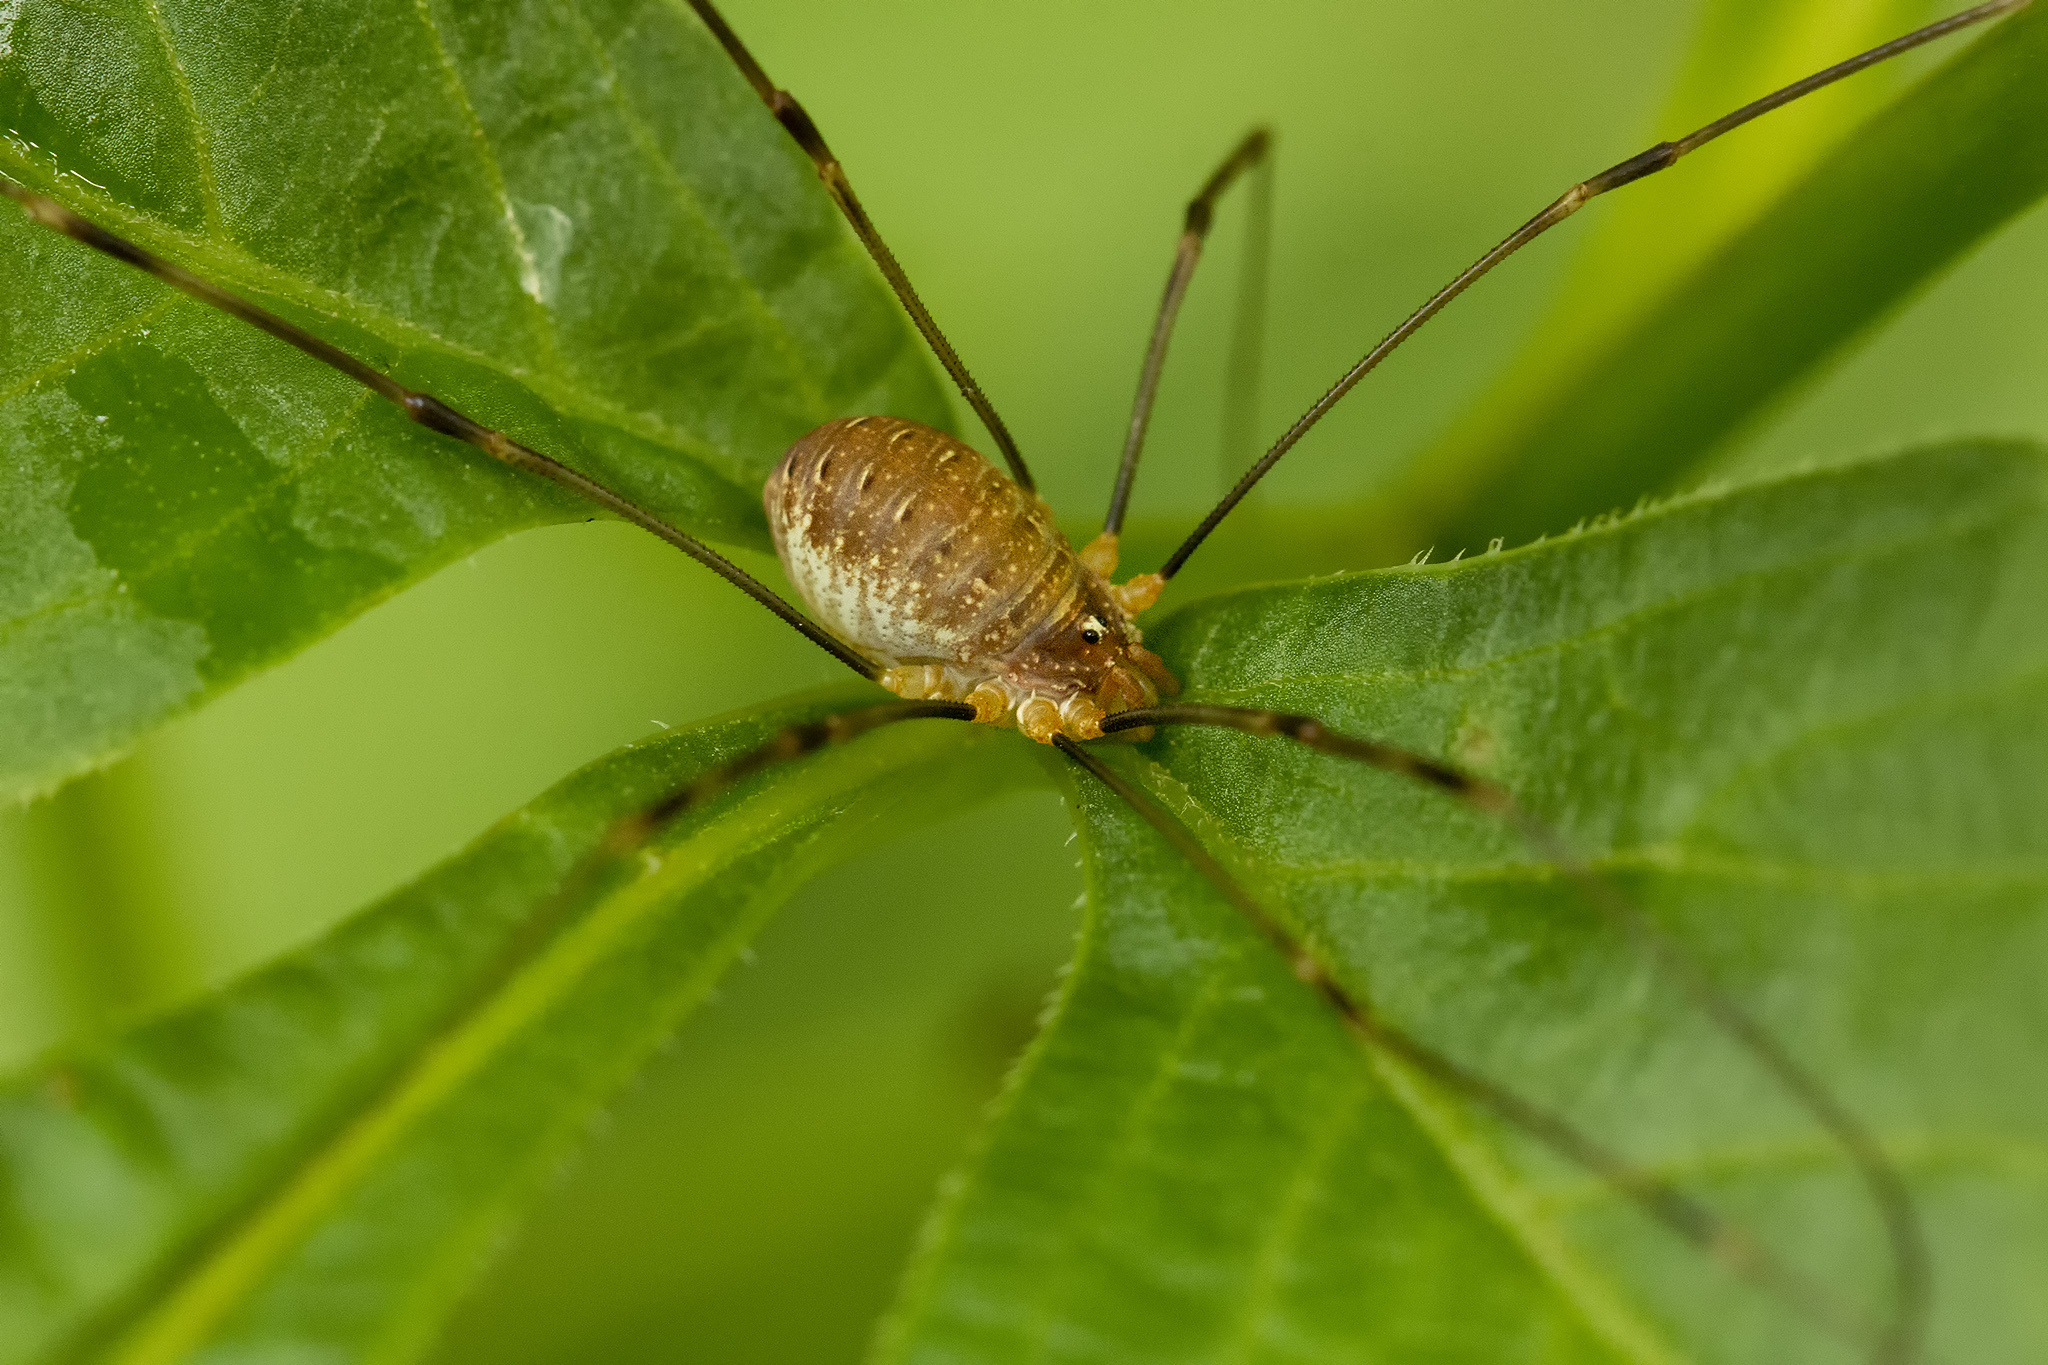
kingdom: Animalia
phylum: Arthropoda
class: Arachnida
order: Opiliones
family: Phalangiidae
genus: Opilio
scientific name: Opilio canestrinii
